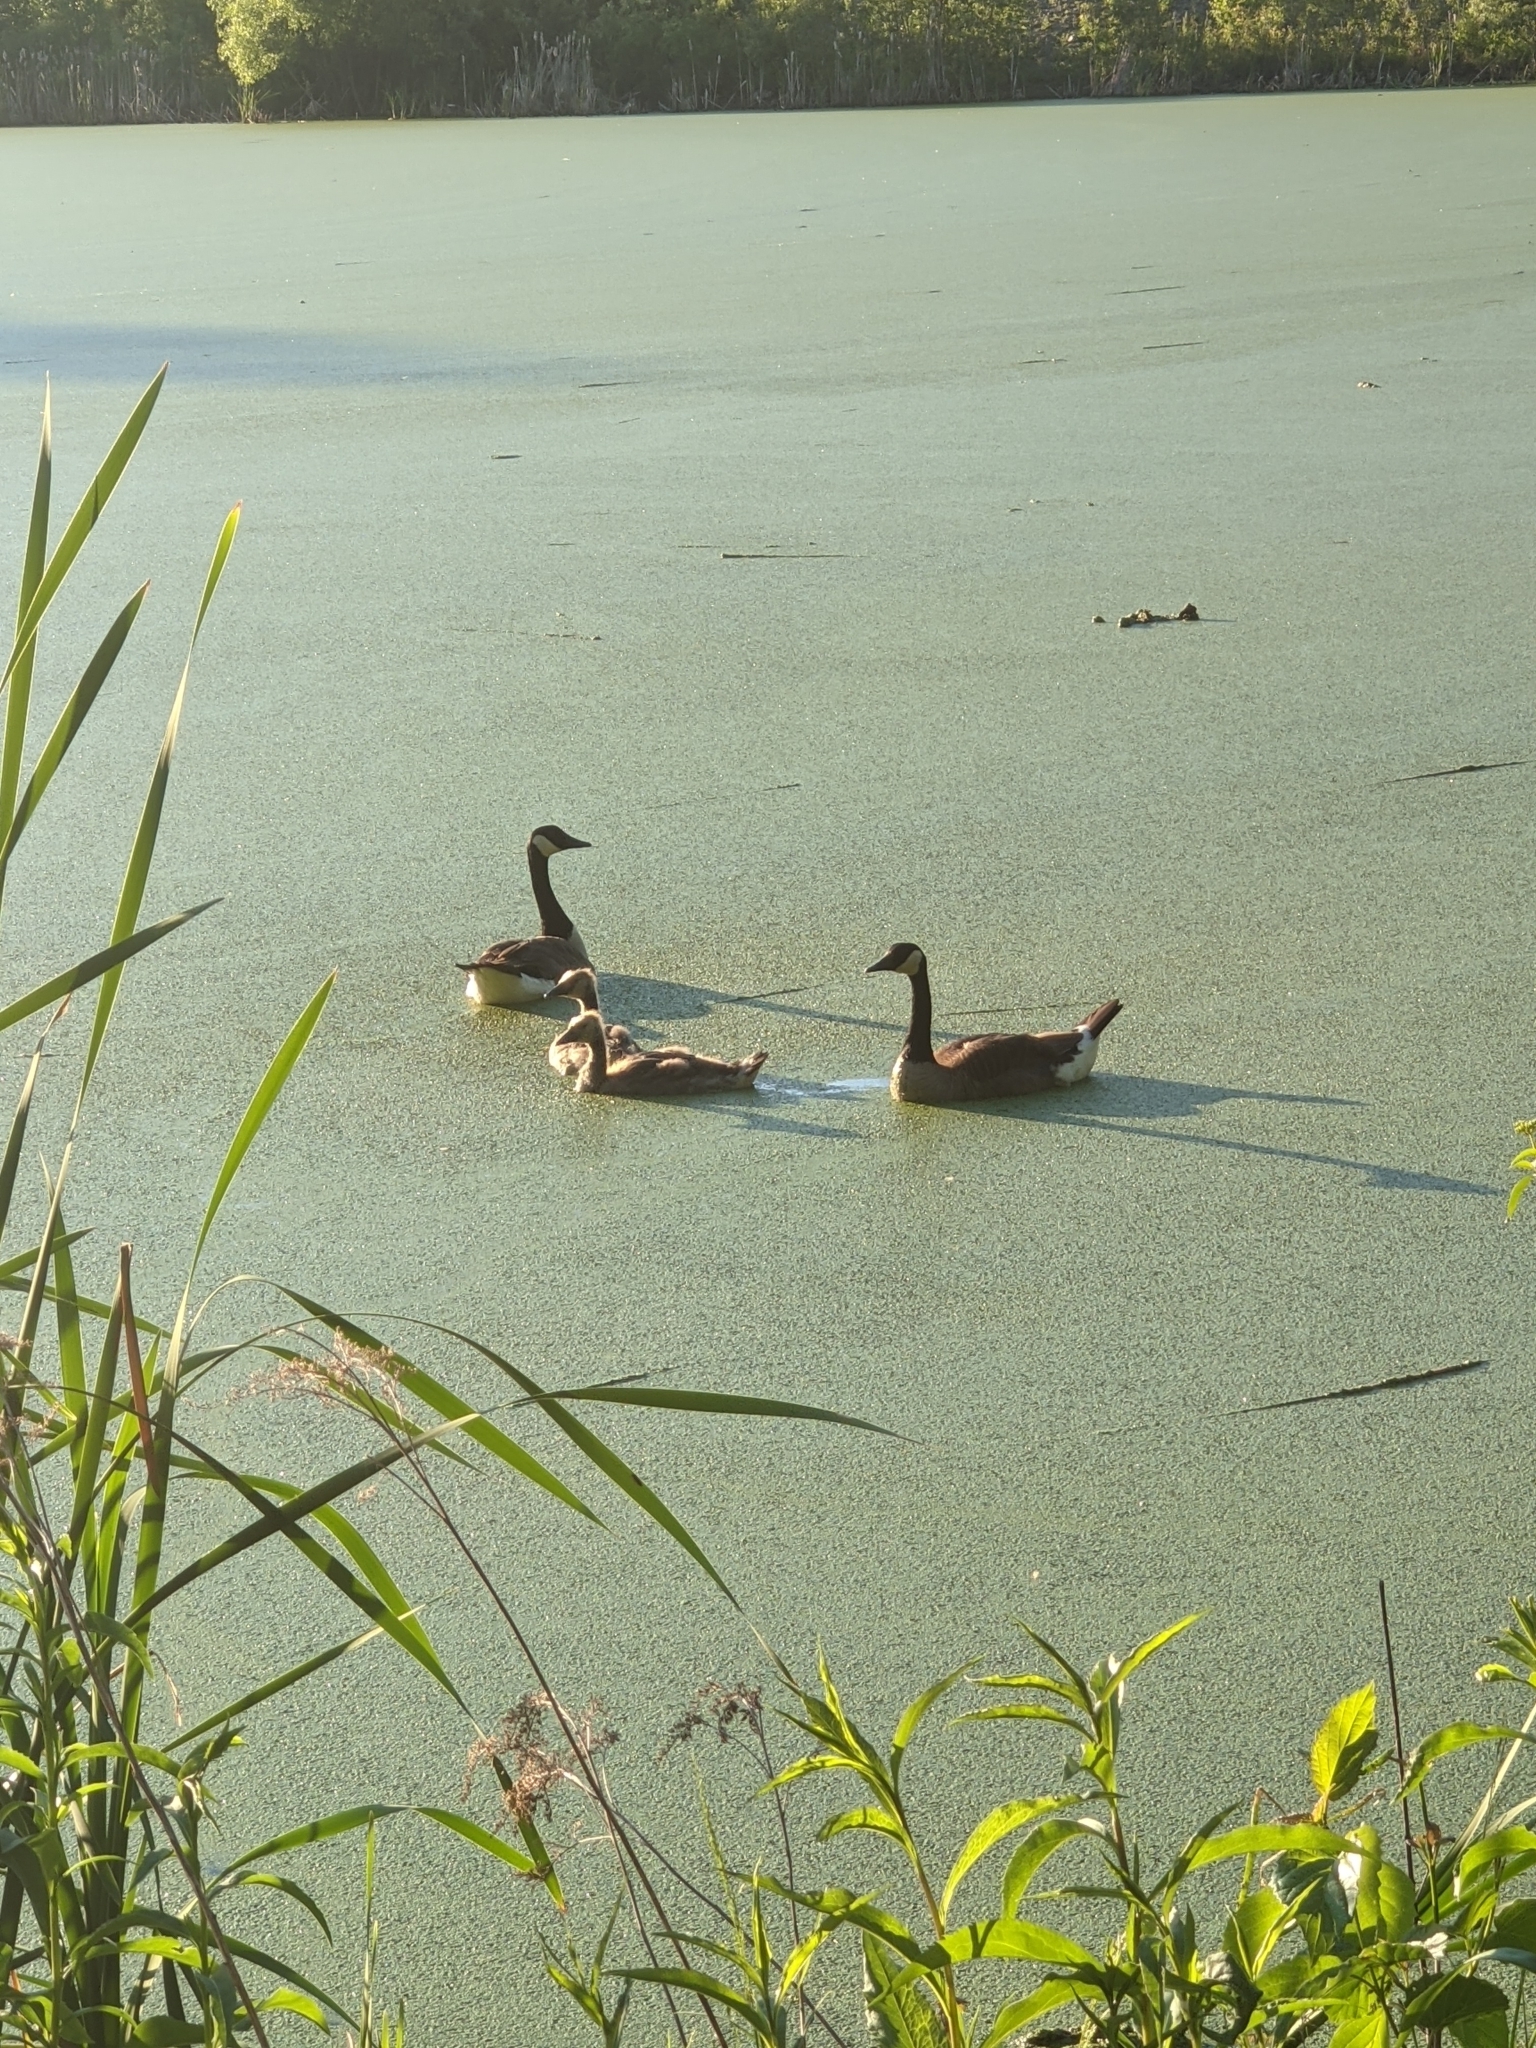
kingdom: Animalia
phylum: Chordata
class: Aves
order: Anseriformes
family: Anatidae
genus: Branta
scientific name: Branta canadensis
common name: Canada goose
